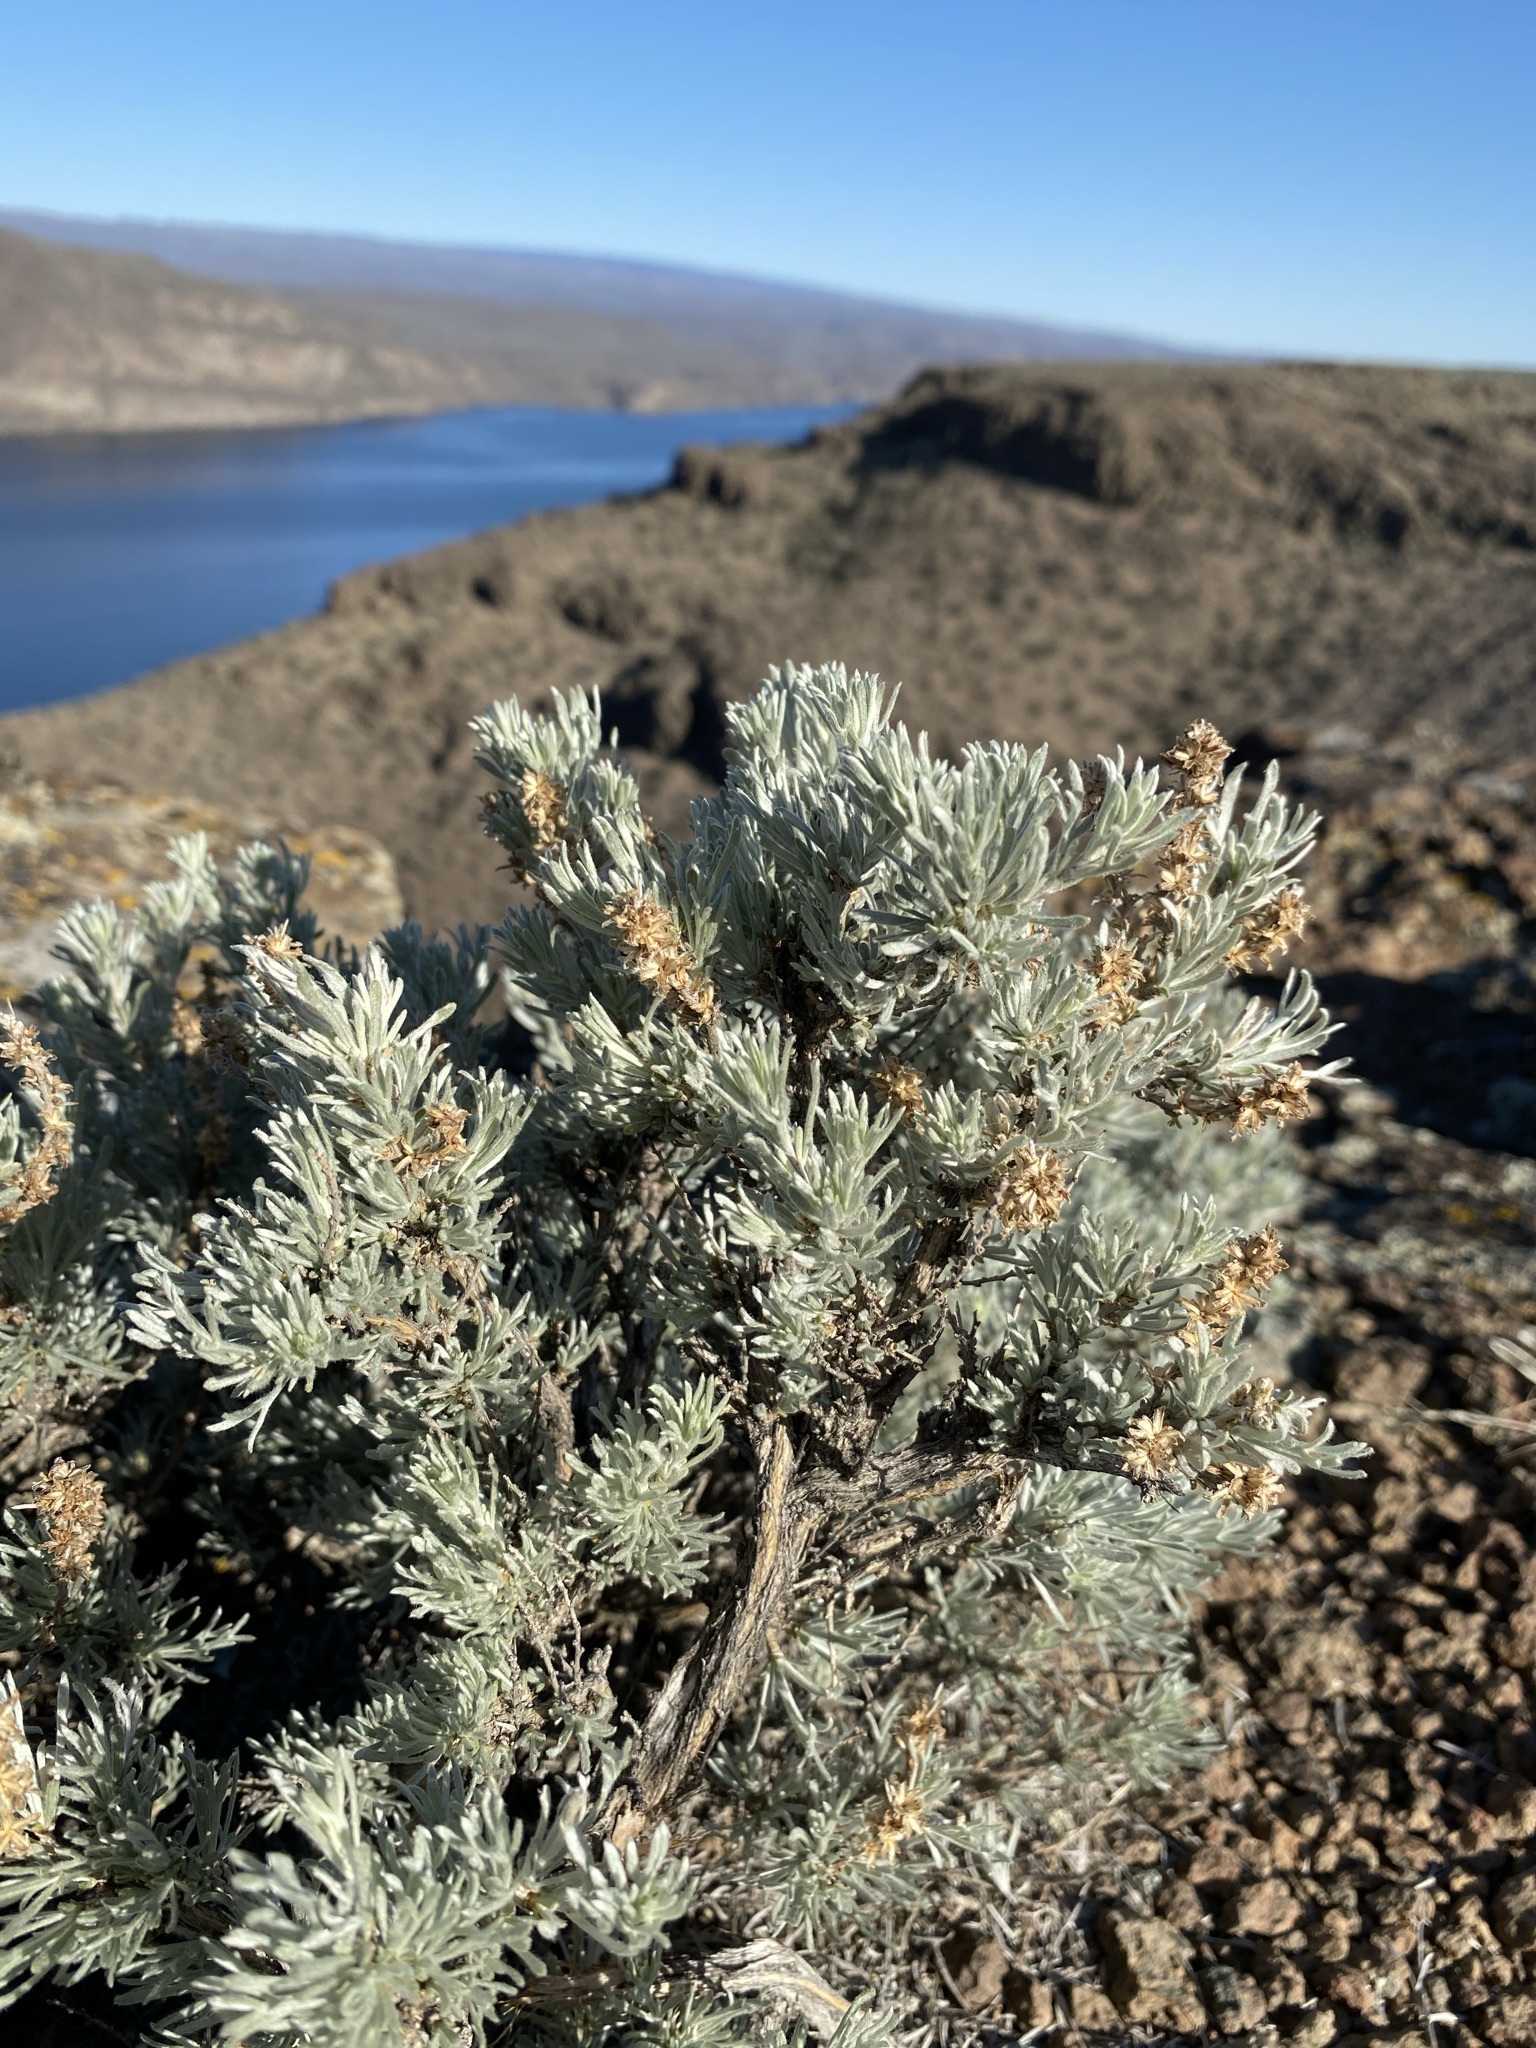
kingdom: Plantae
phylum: Tracheophyta
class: Magnoliopsida
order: Asterales
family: Asteraceae
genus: Artemisia
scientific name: Artemisia rigida
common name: Scabland sagebrush
